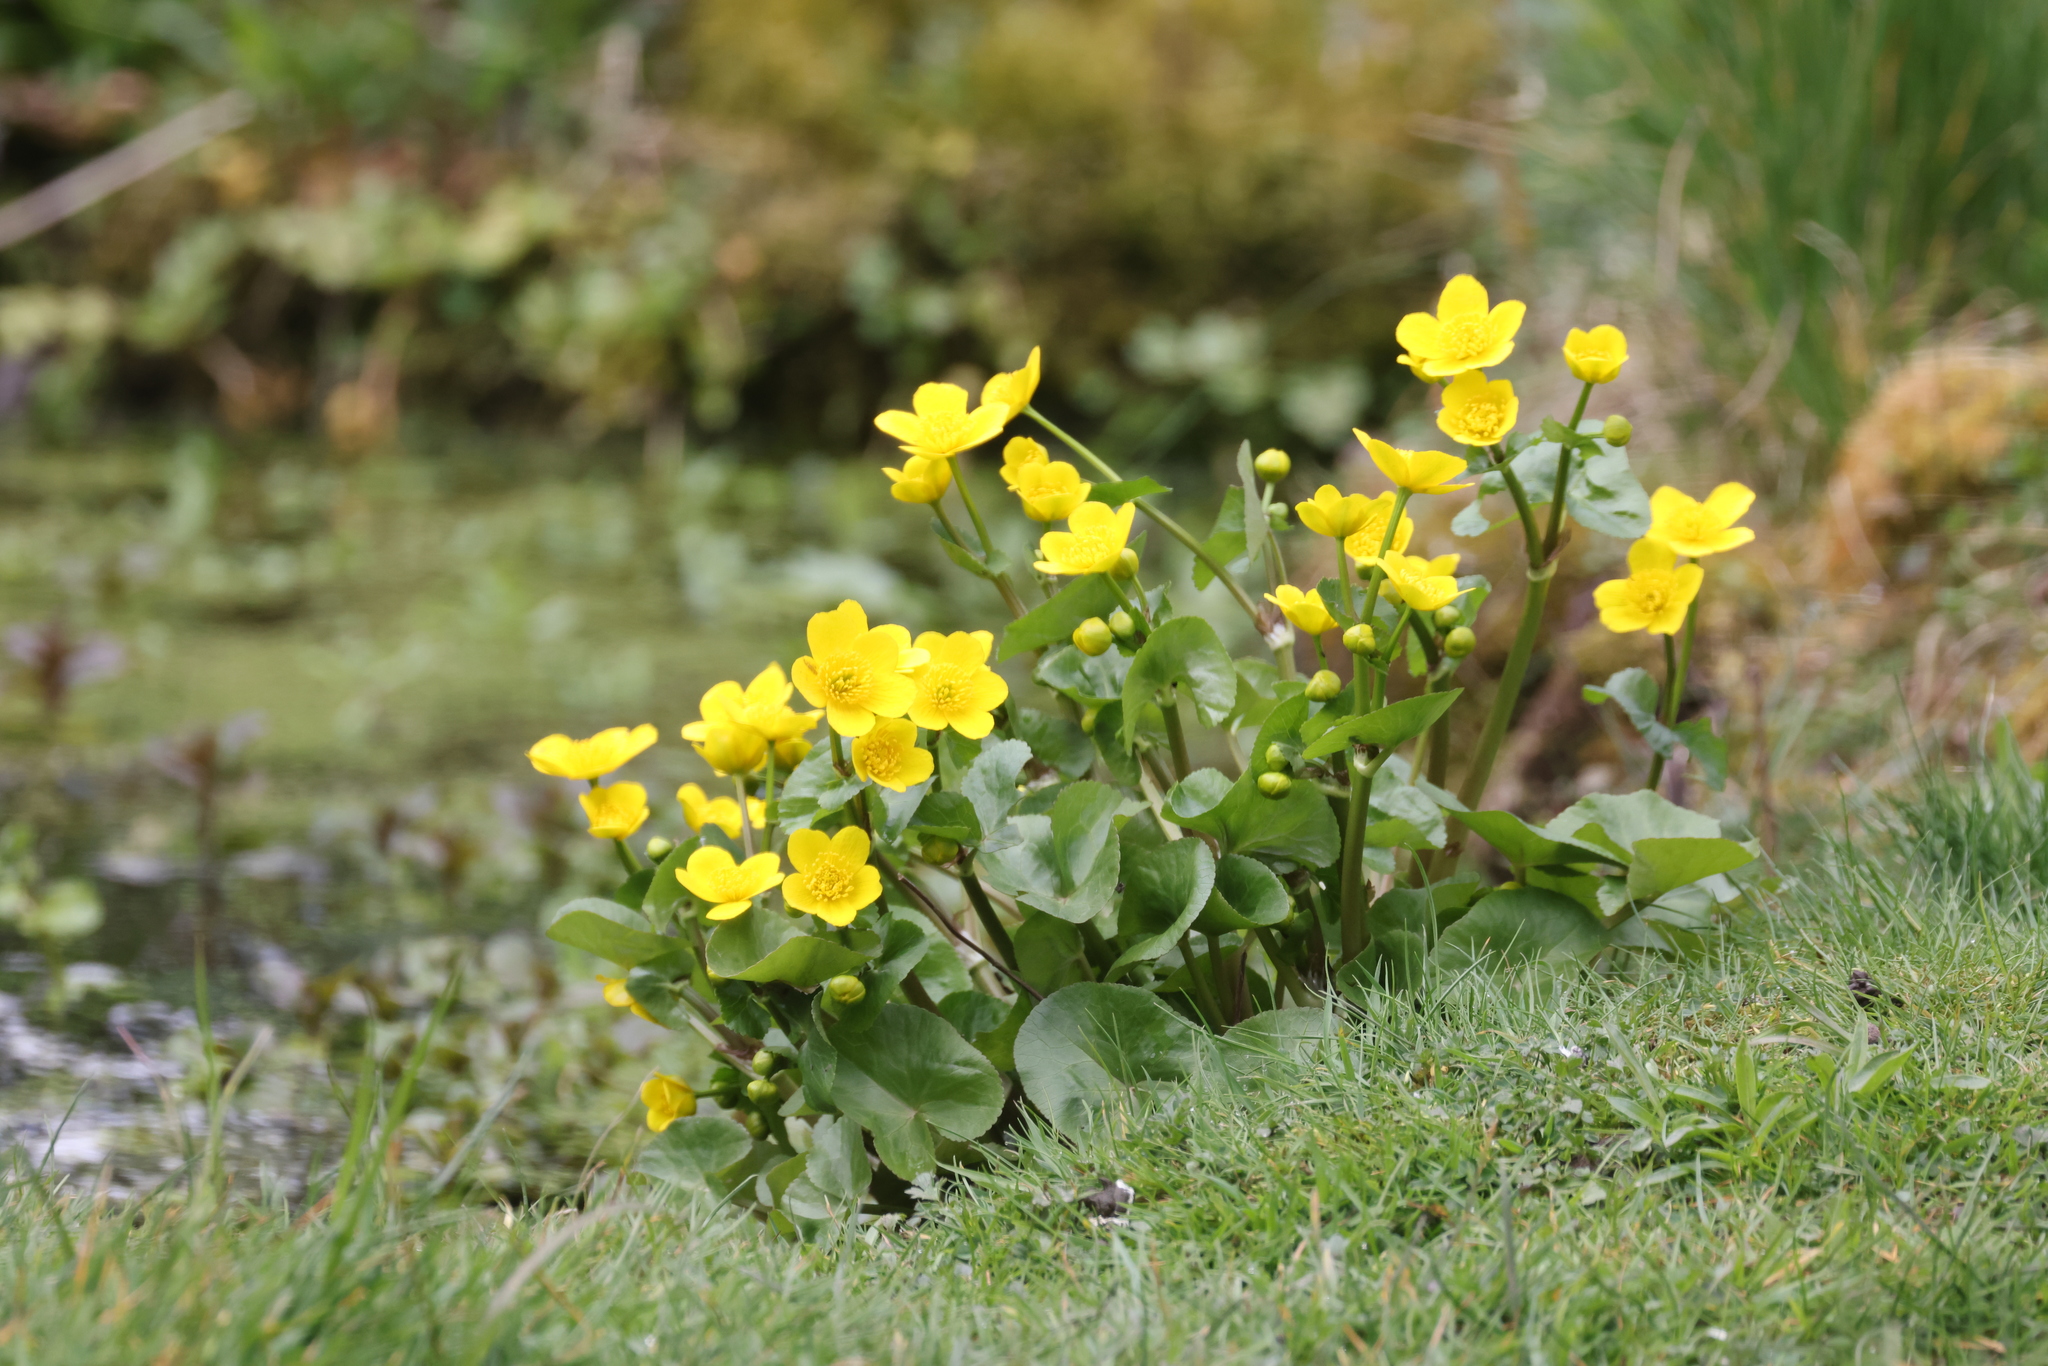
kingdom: Plantae
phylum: Tracheophyta
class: Magnoliopsida
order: Ranunculales
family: Ranunculaceae
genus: Caltha
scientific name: Caltha palustris
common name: Marsh marigold
